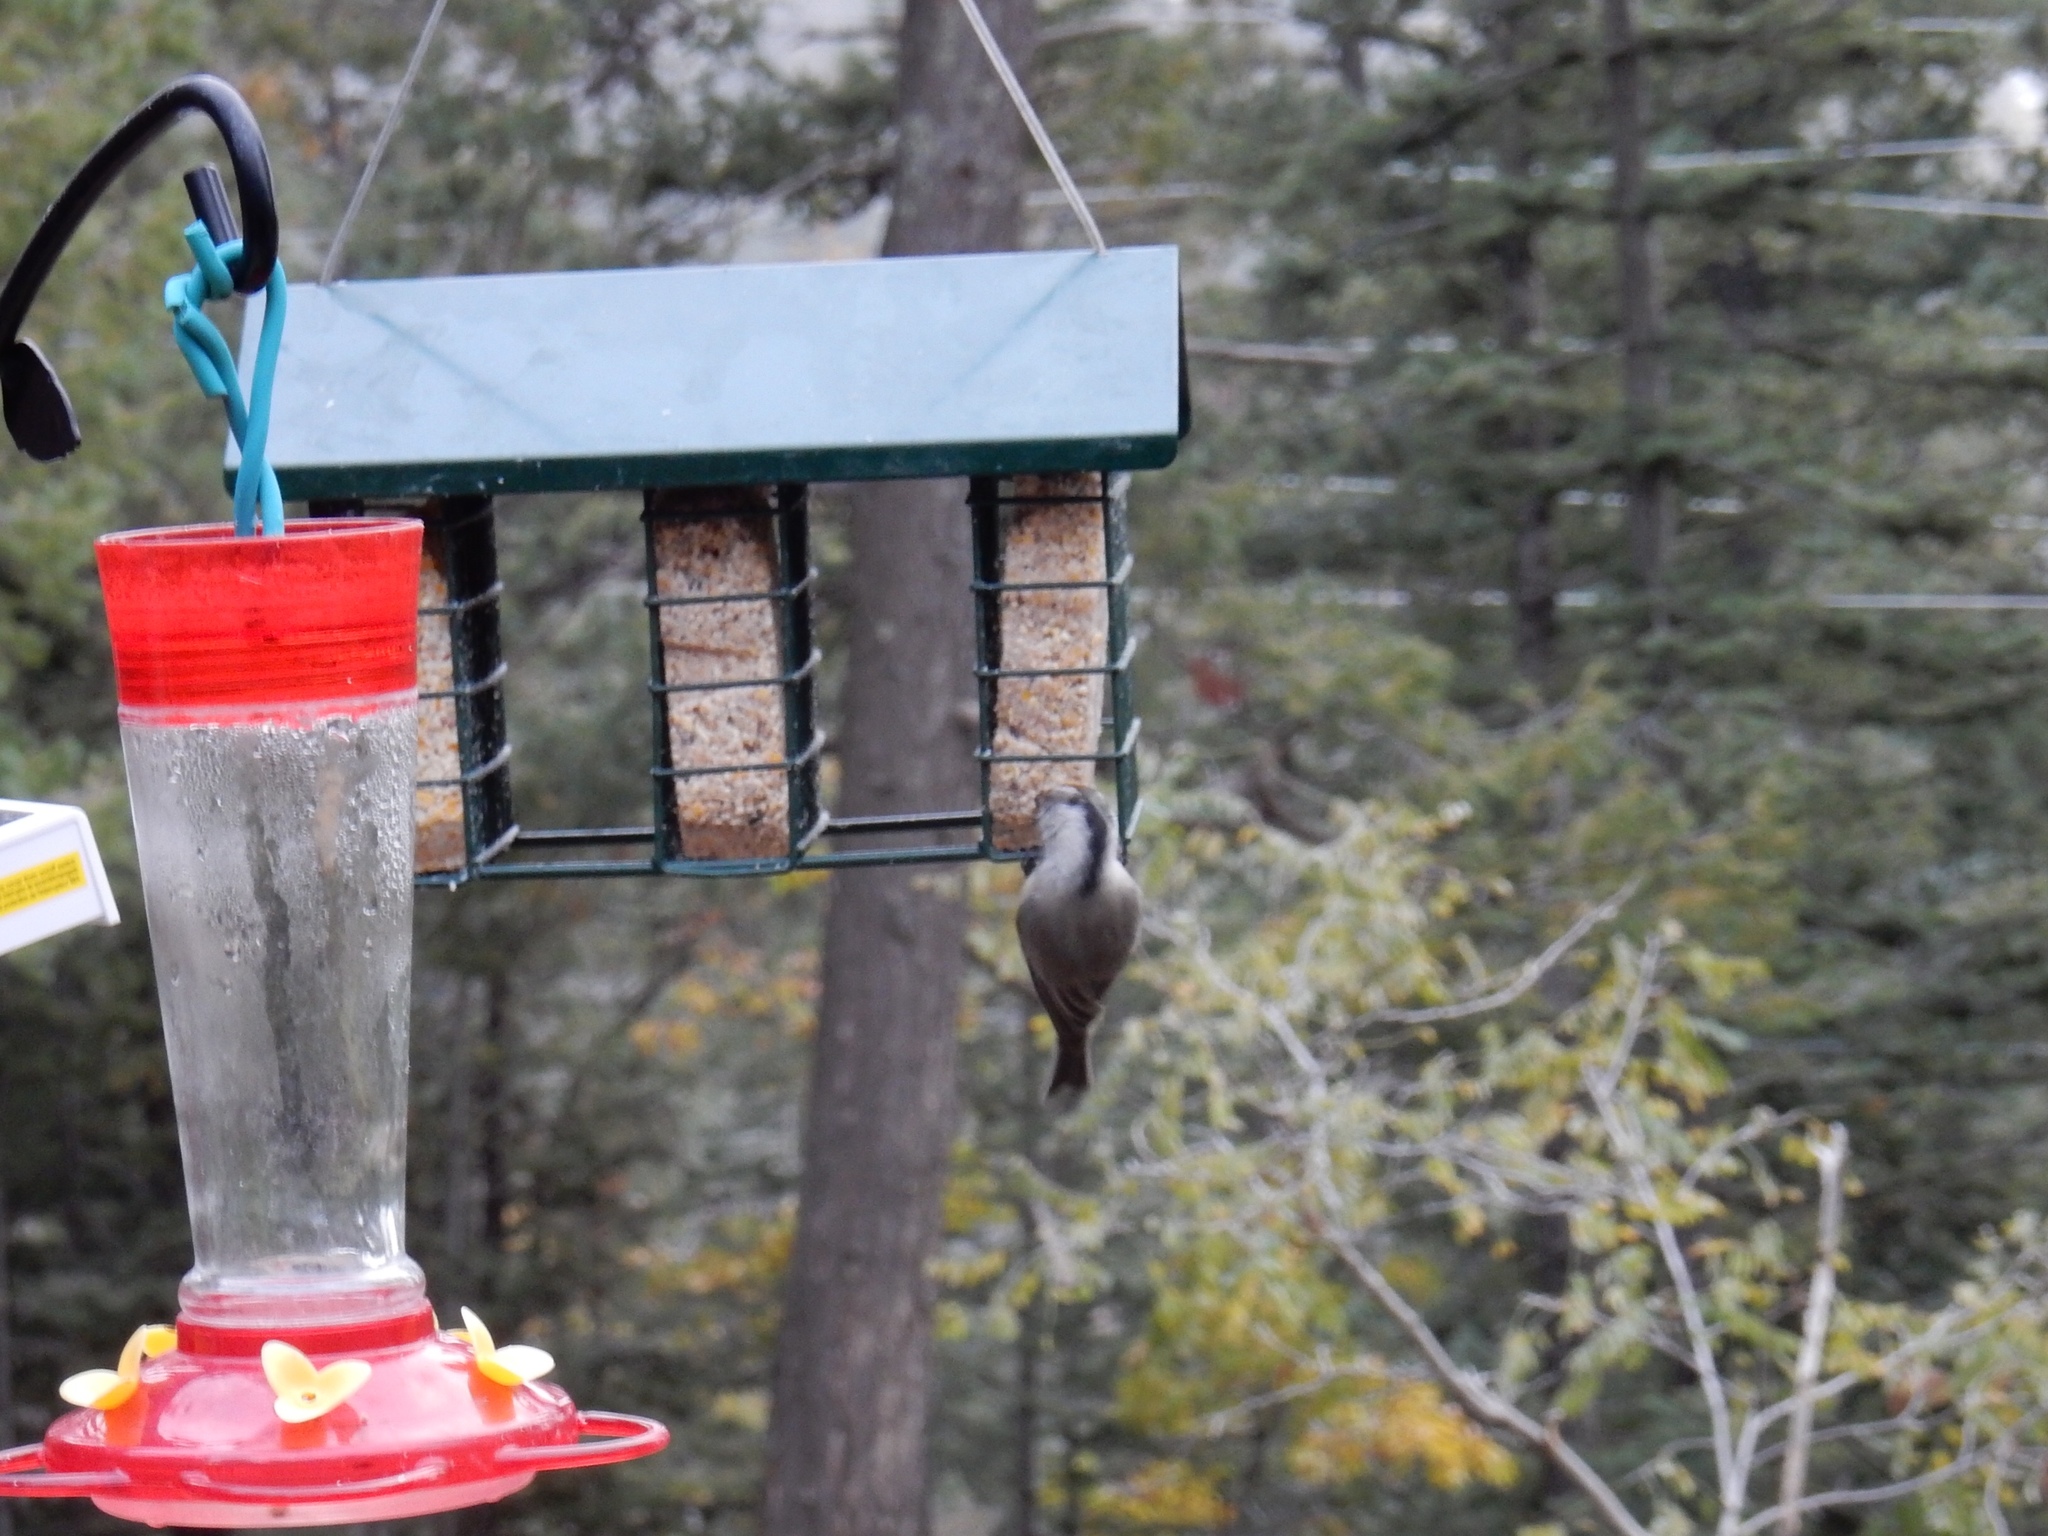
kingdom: Animalia
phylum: Chordata
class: Aves
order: Passeriformes
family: Paridae
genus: Poecile
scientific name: Poecile gambeli
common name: Mountain chickadee
